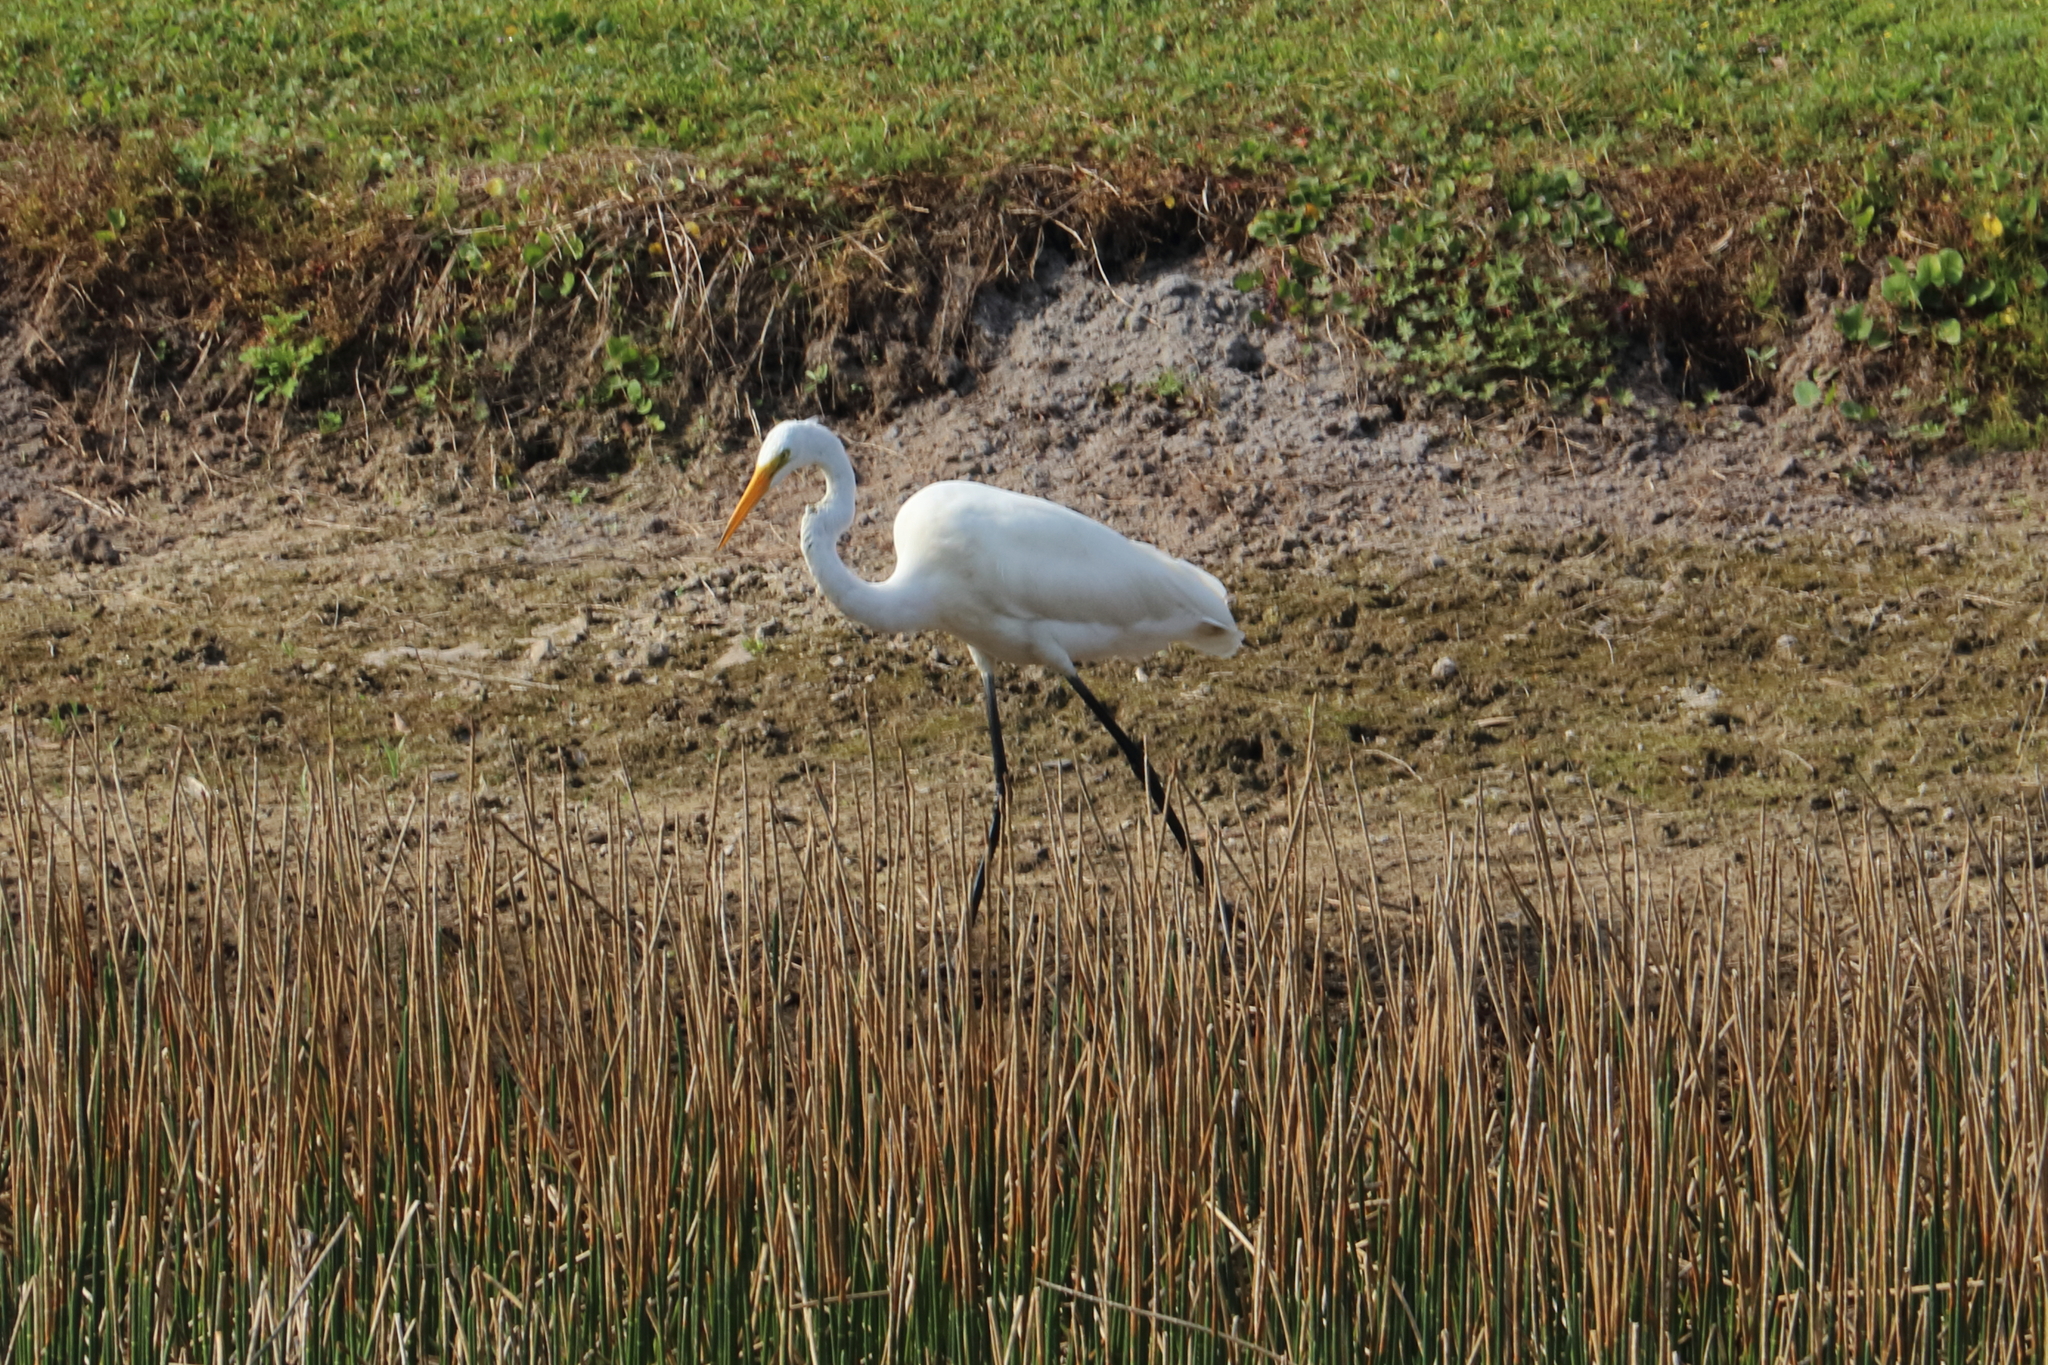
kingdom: Animalia
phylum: Chordata
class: Aves
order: Pelecaniformes
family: Ardeidae
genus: Ardea
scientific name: Ardea alba
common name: Great egret
